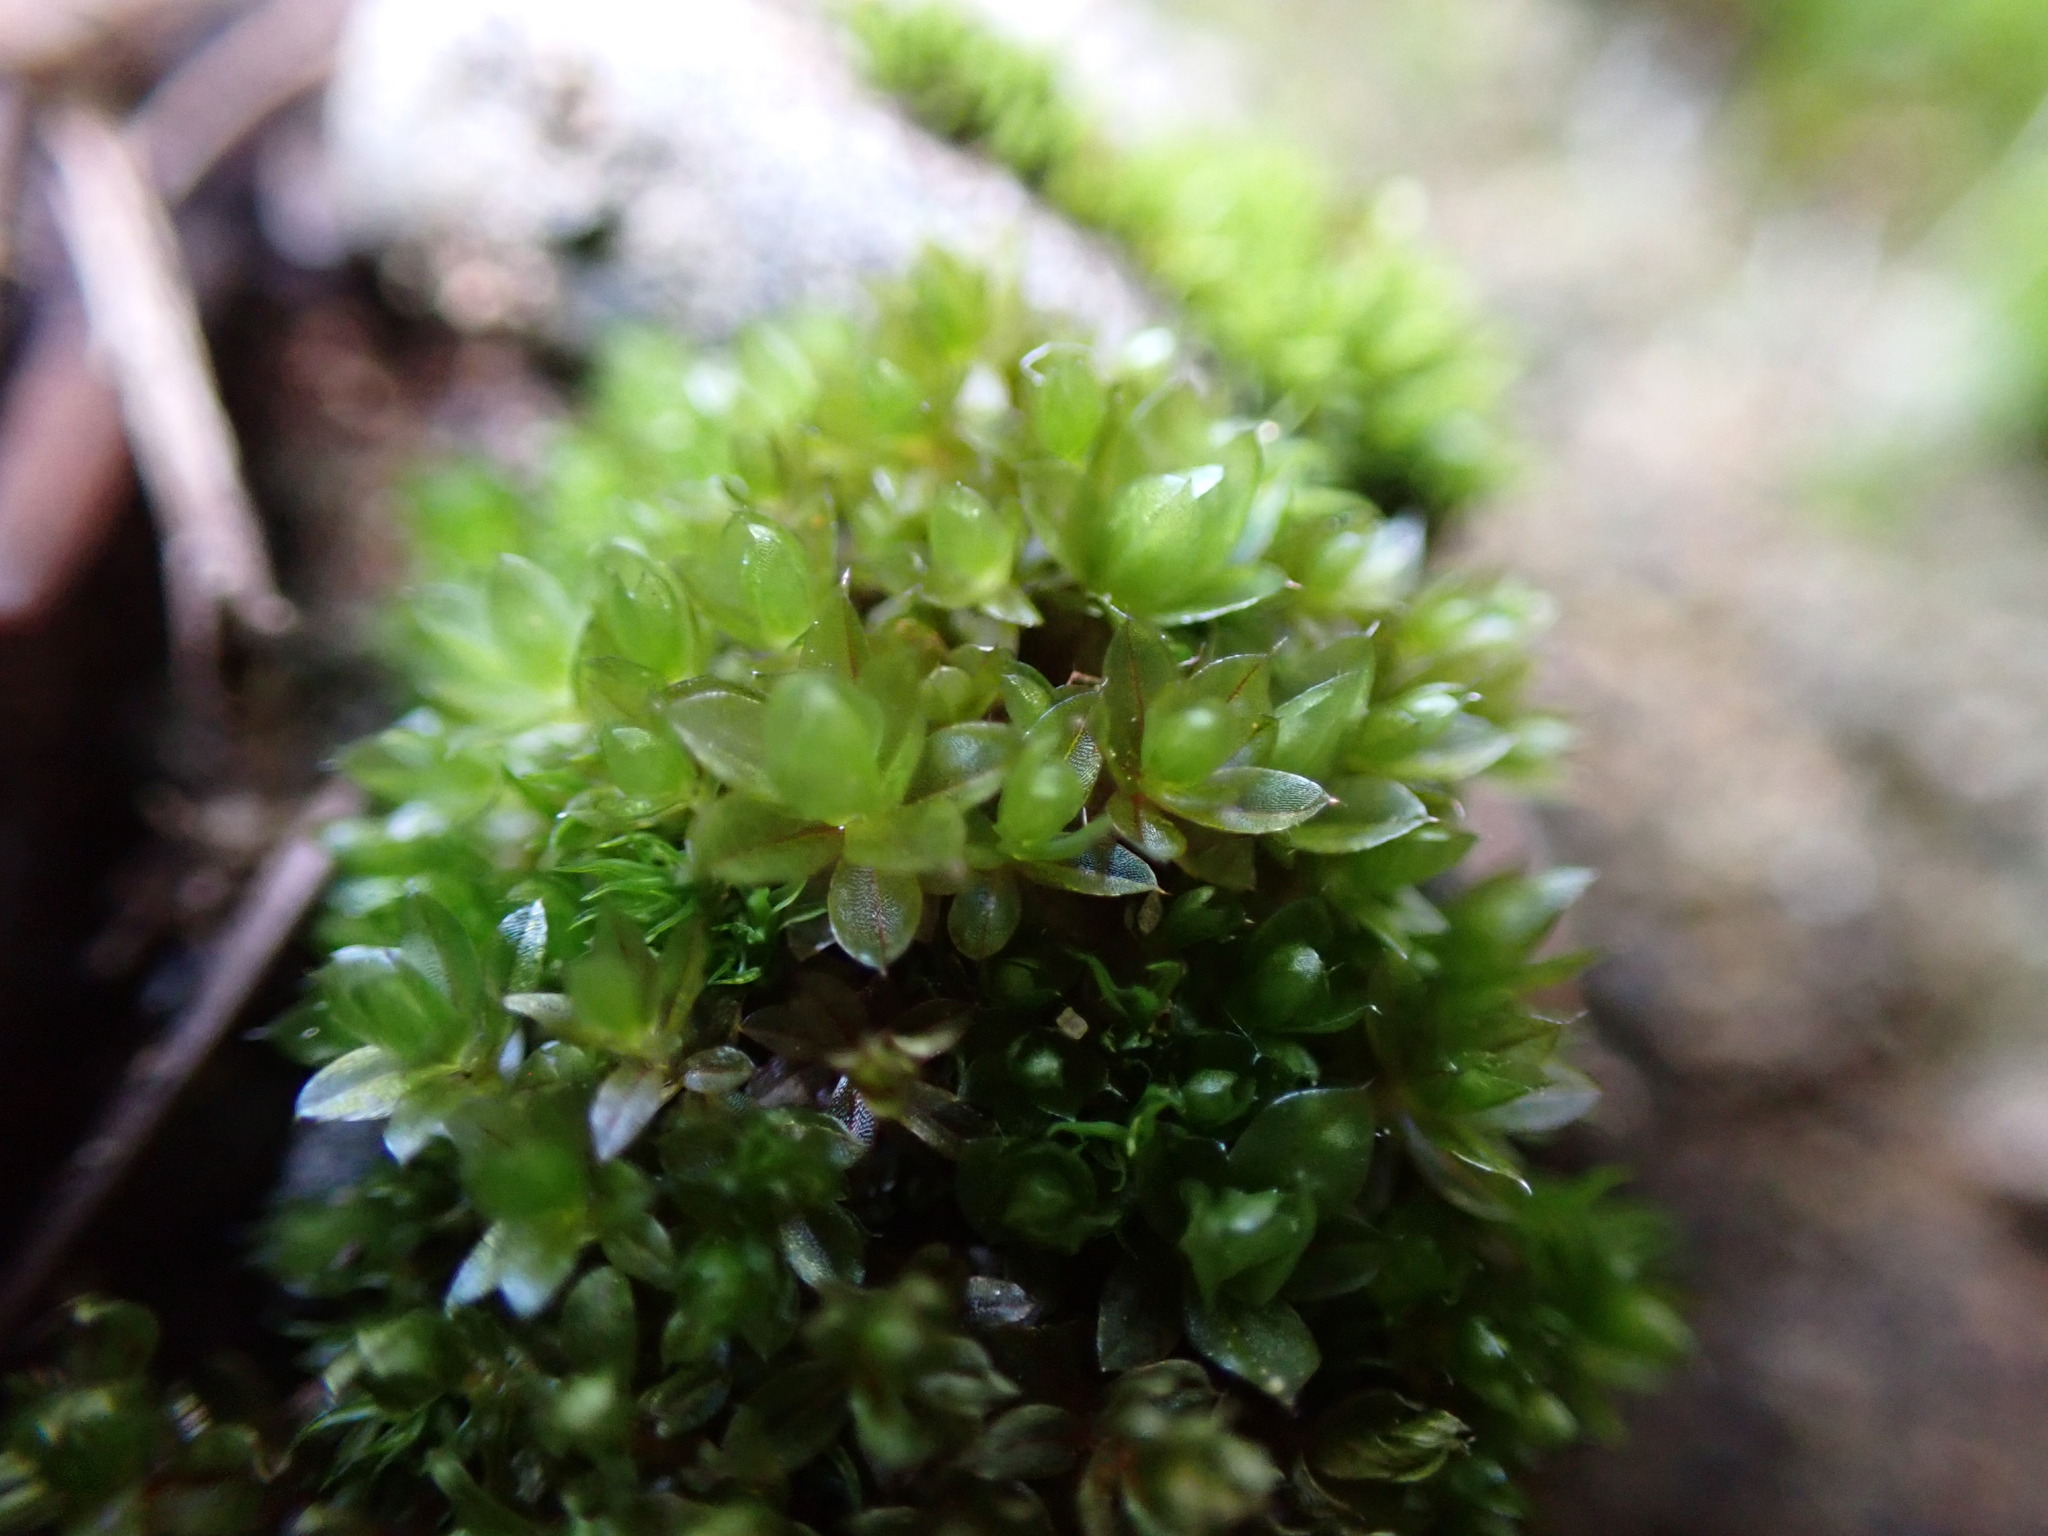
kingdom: Plantae
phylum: Bryophyta
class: Bryopsida
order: Bryales
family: Bryaceae
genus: Rosulabryum
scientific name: Rosulabryum capillare
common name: Capillary thread-moss
